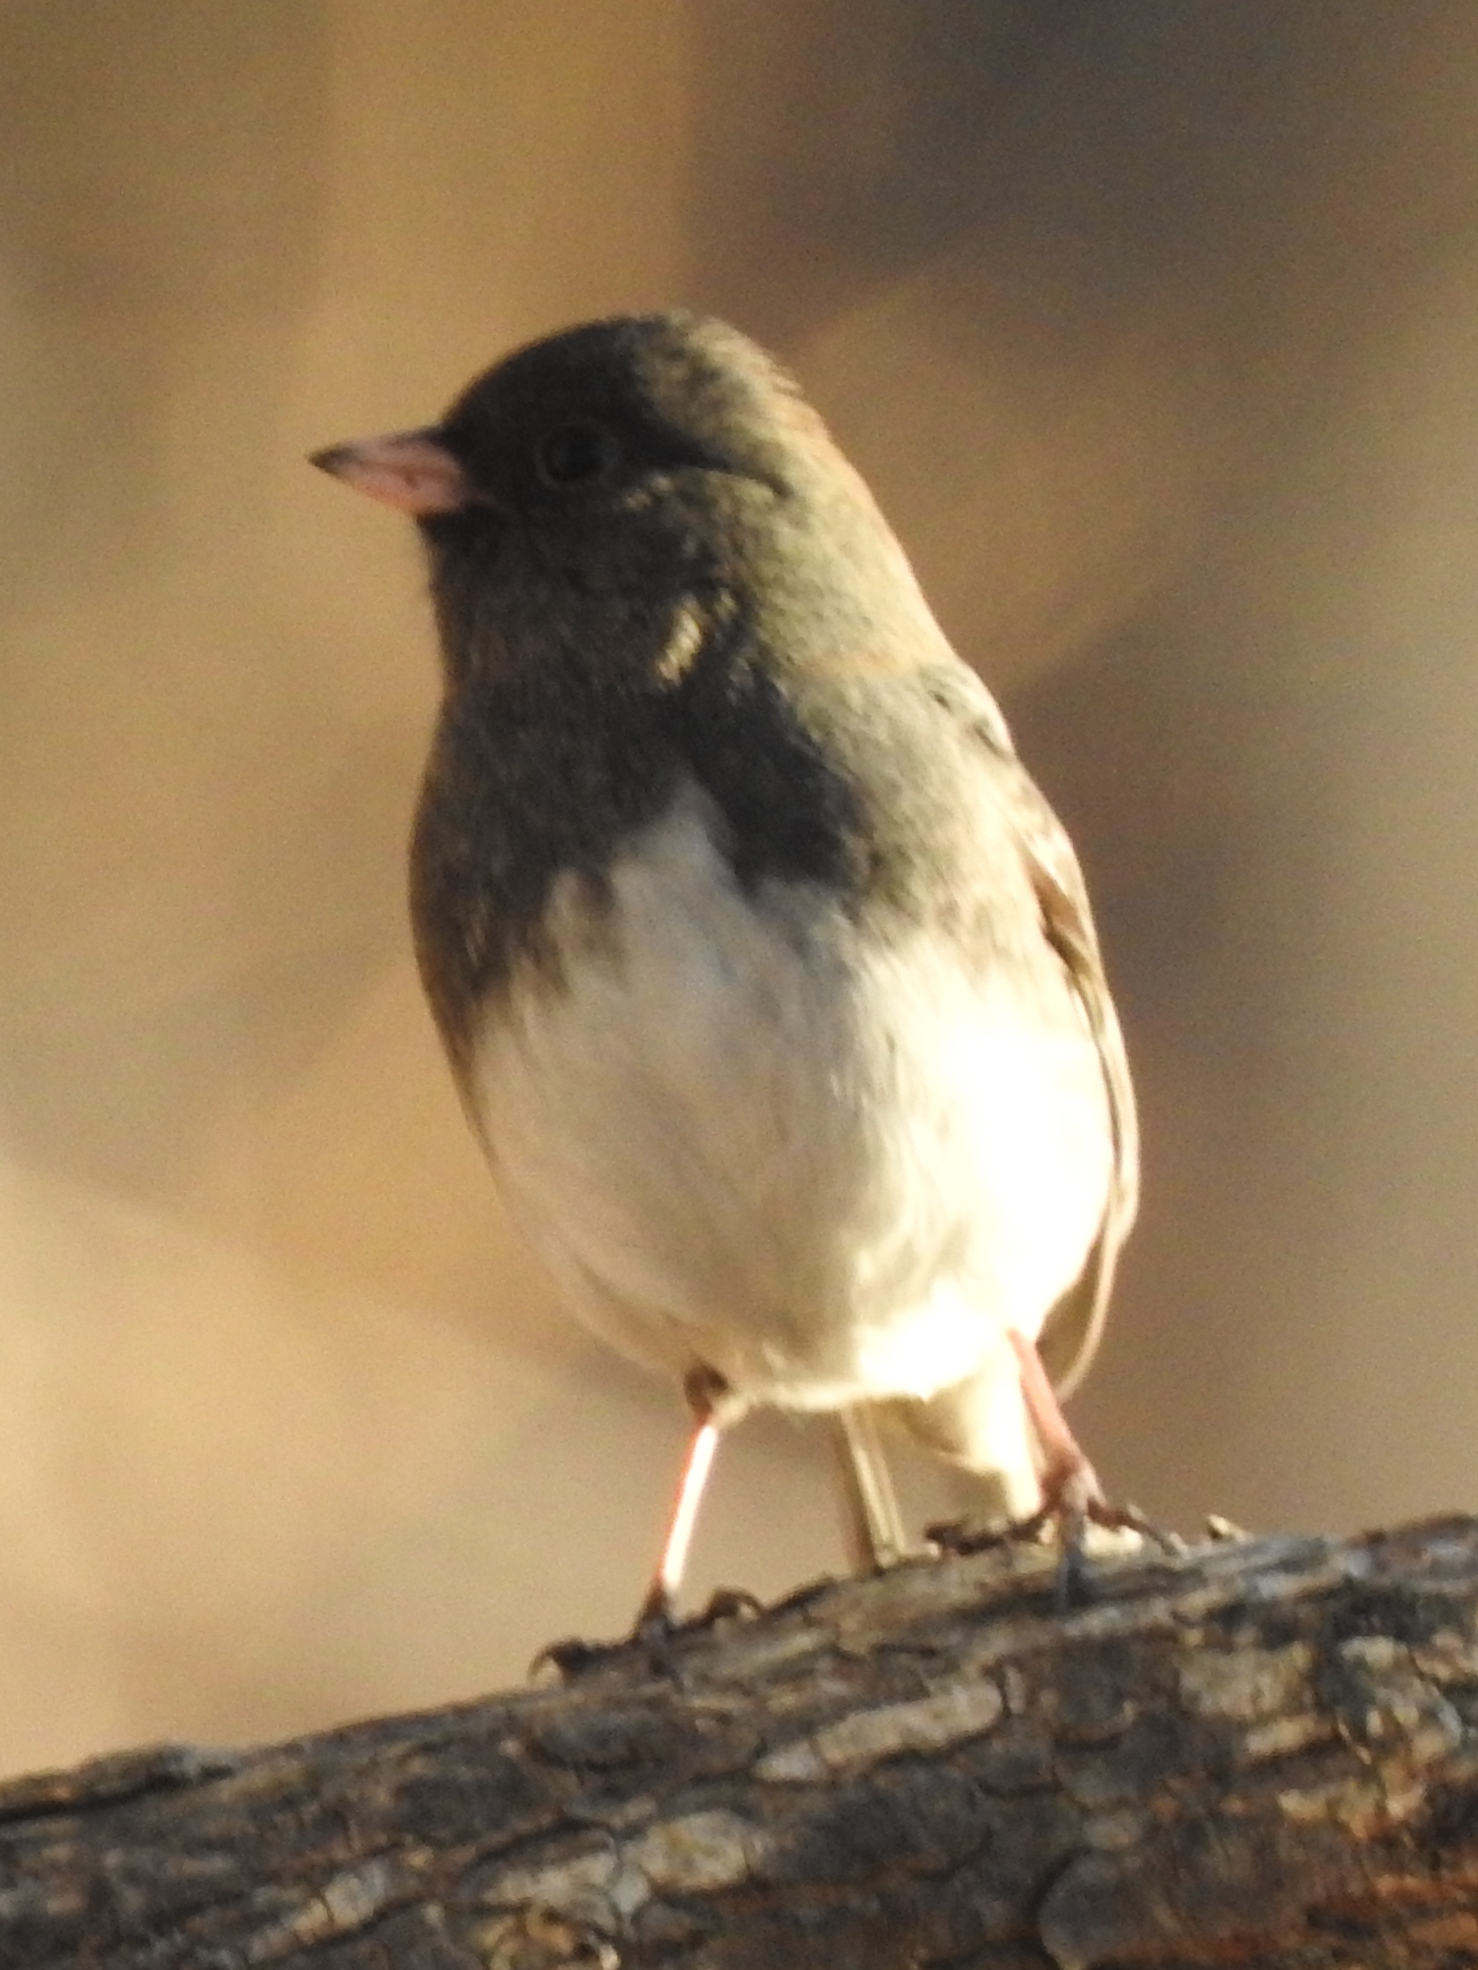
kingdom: Animalia
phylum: Chordata
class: Aves
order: Passeriformes
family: Passerellidae
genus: Junco
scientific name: Junco hyemalis
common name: Dark-eyed junco
